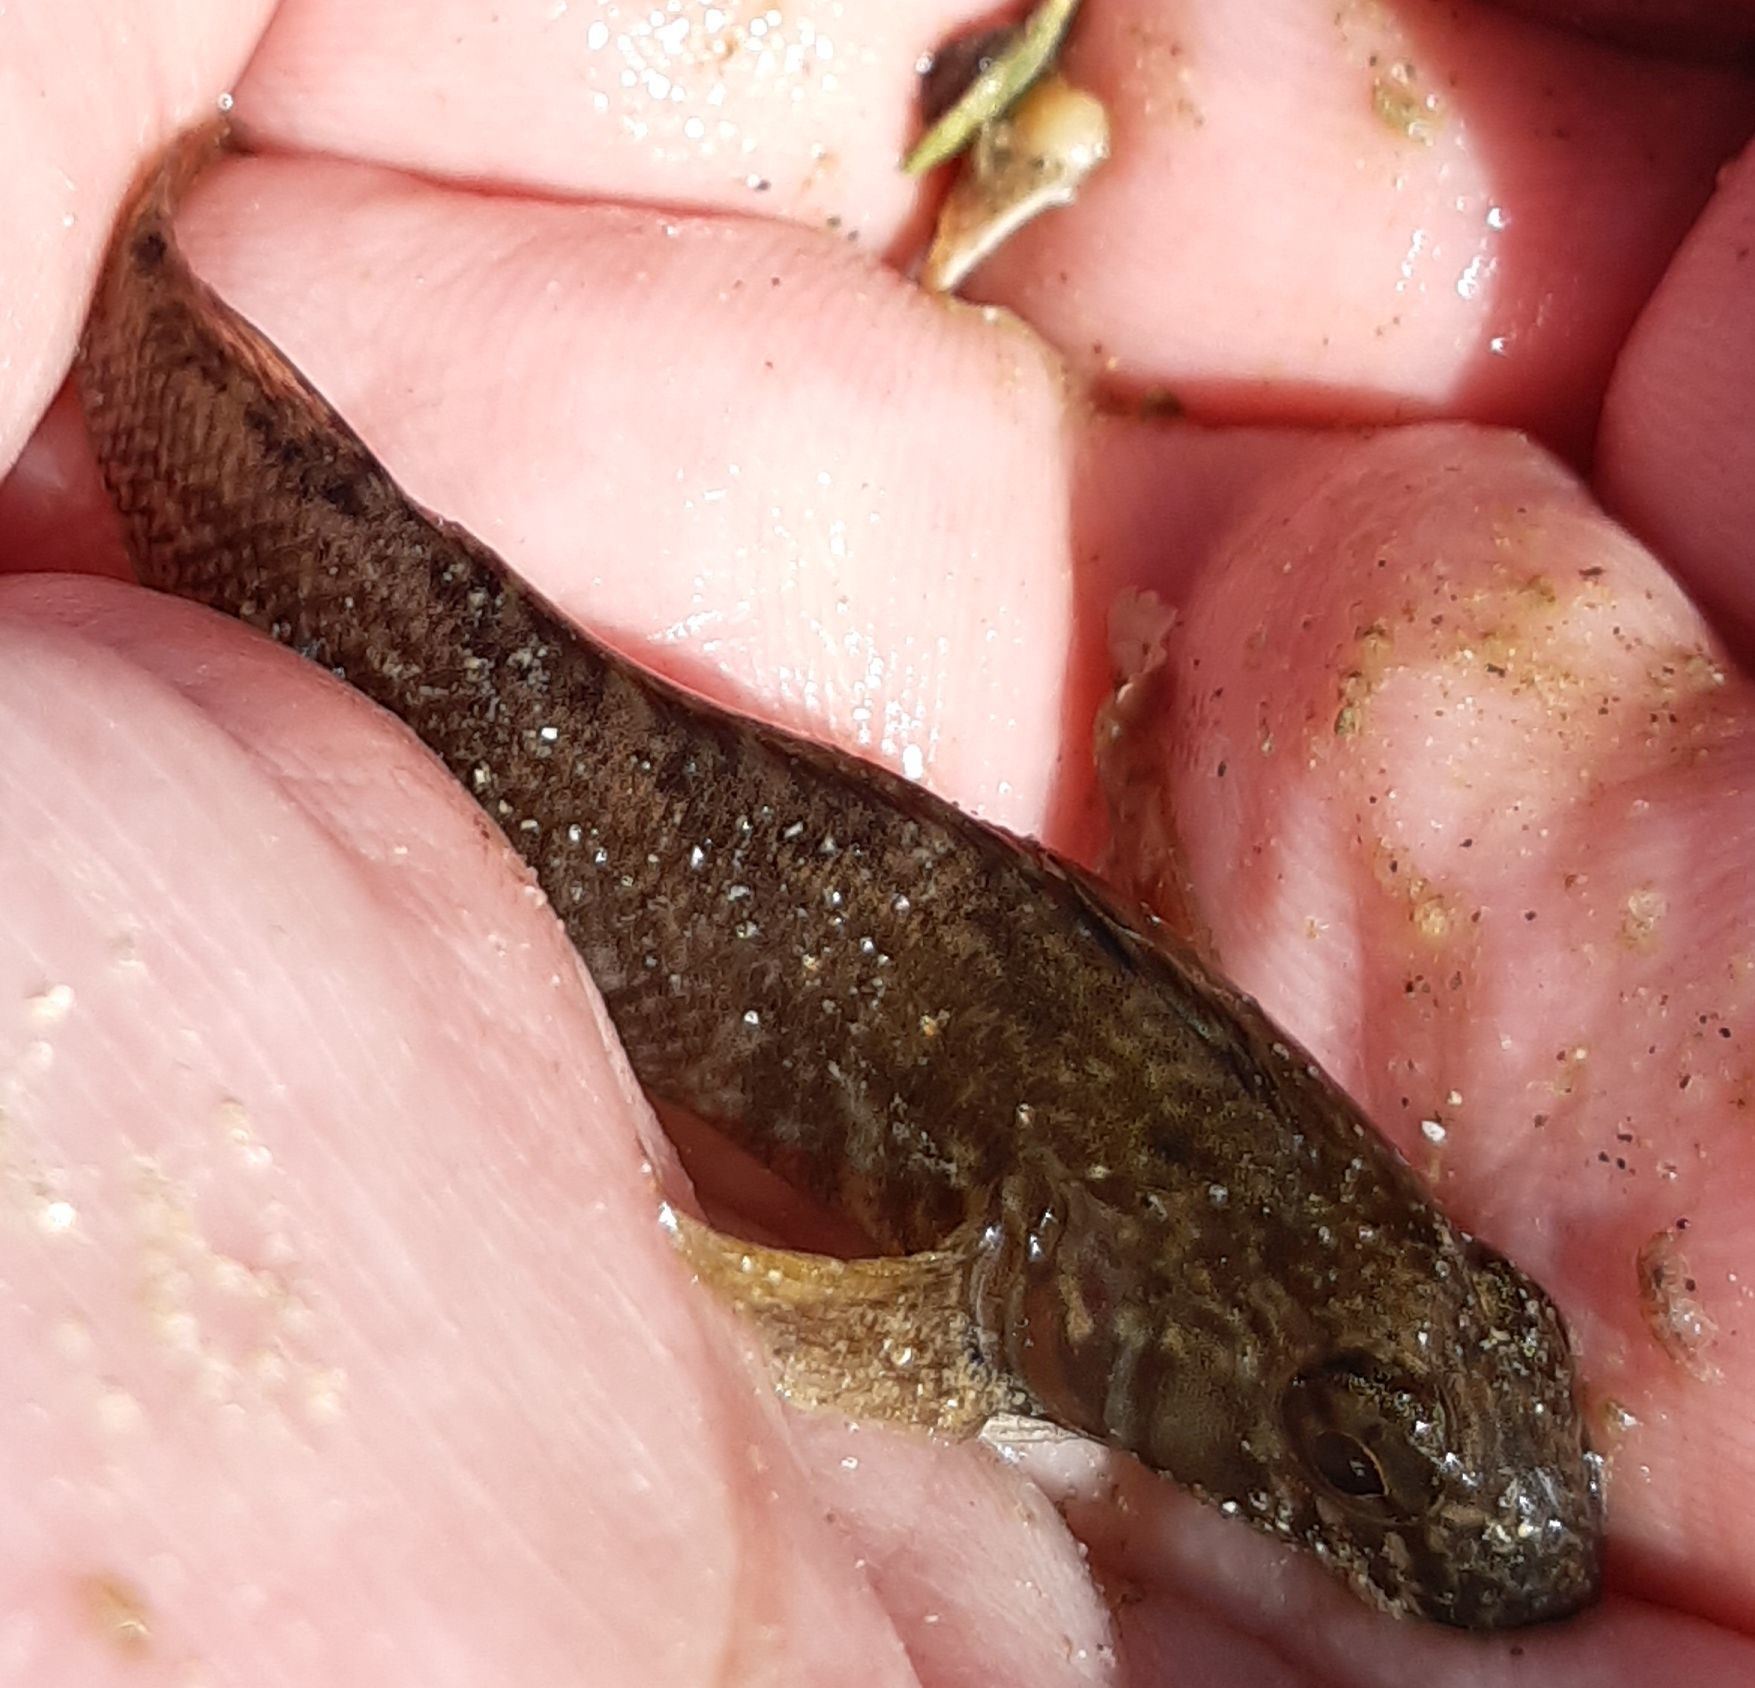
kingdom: Animalia
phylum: Chordata
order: Perciformes
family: Tripterygiidae
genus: Bellapiscis
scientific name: Bellapiscis medius
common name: Twister
